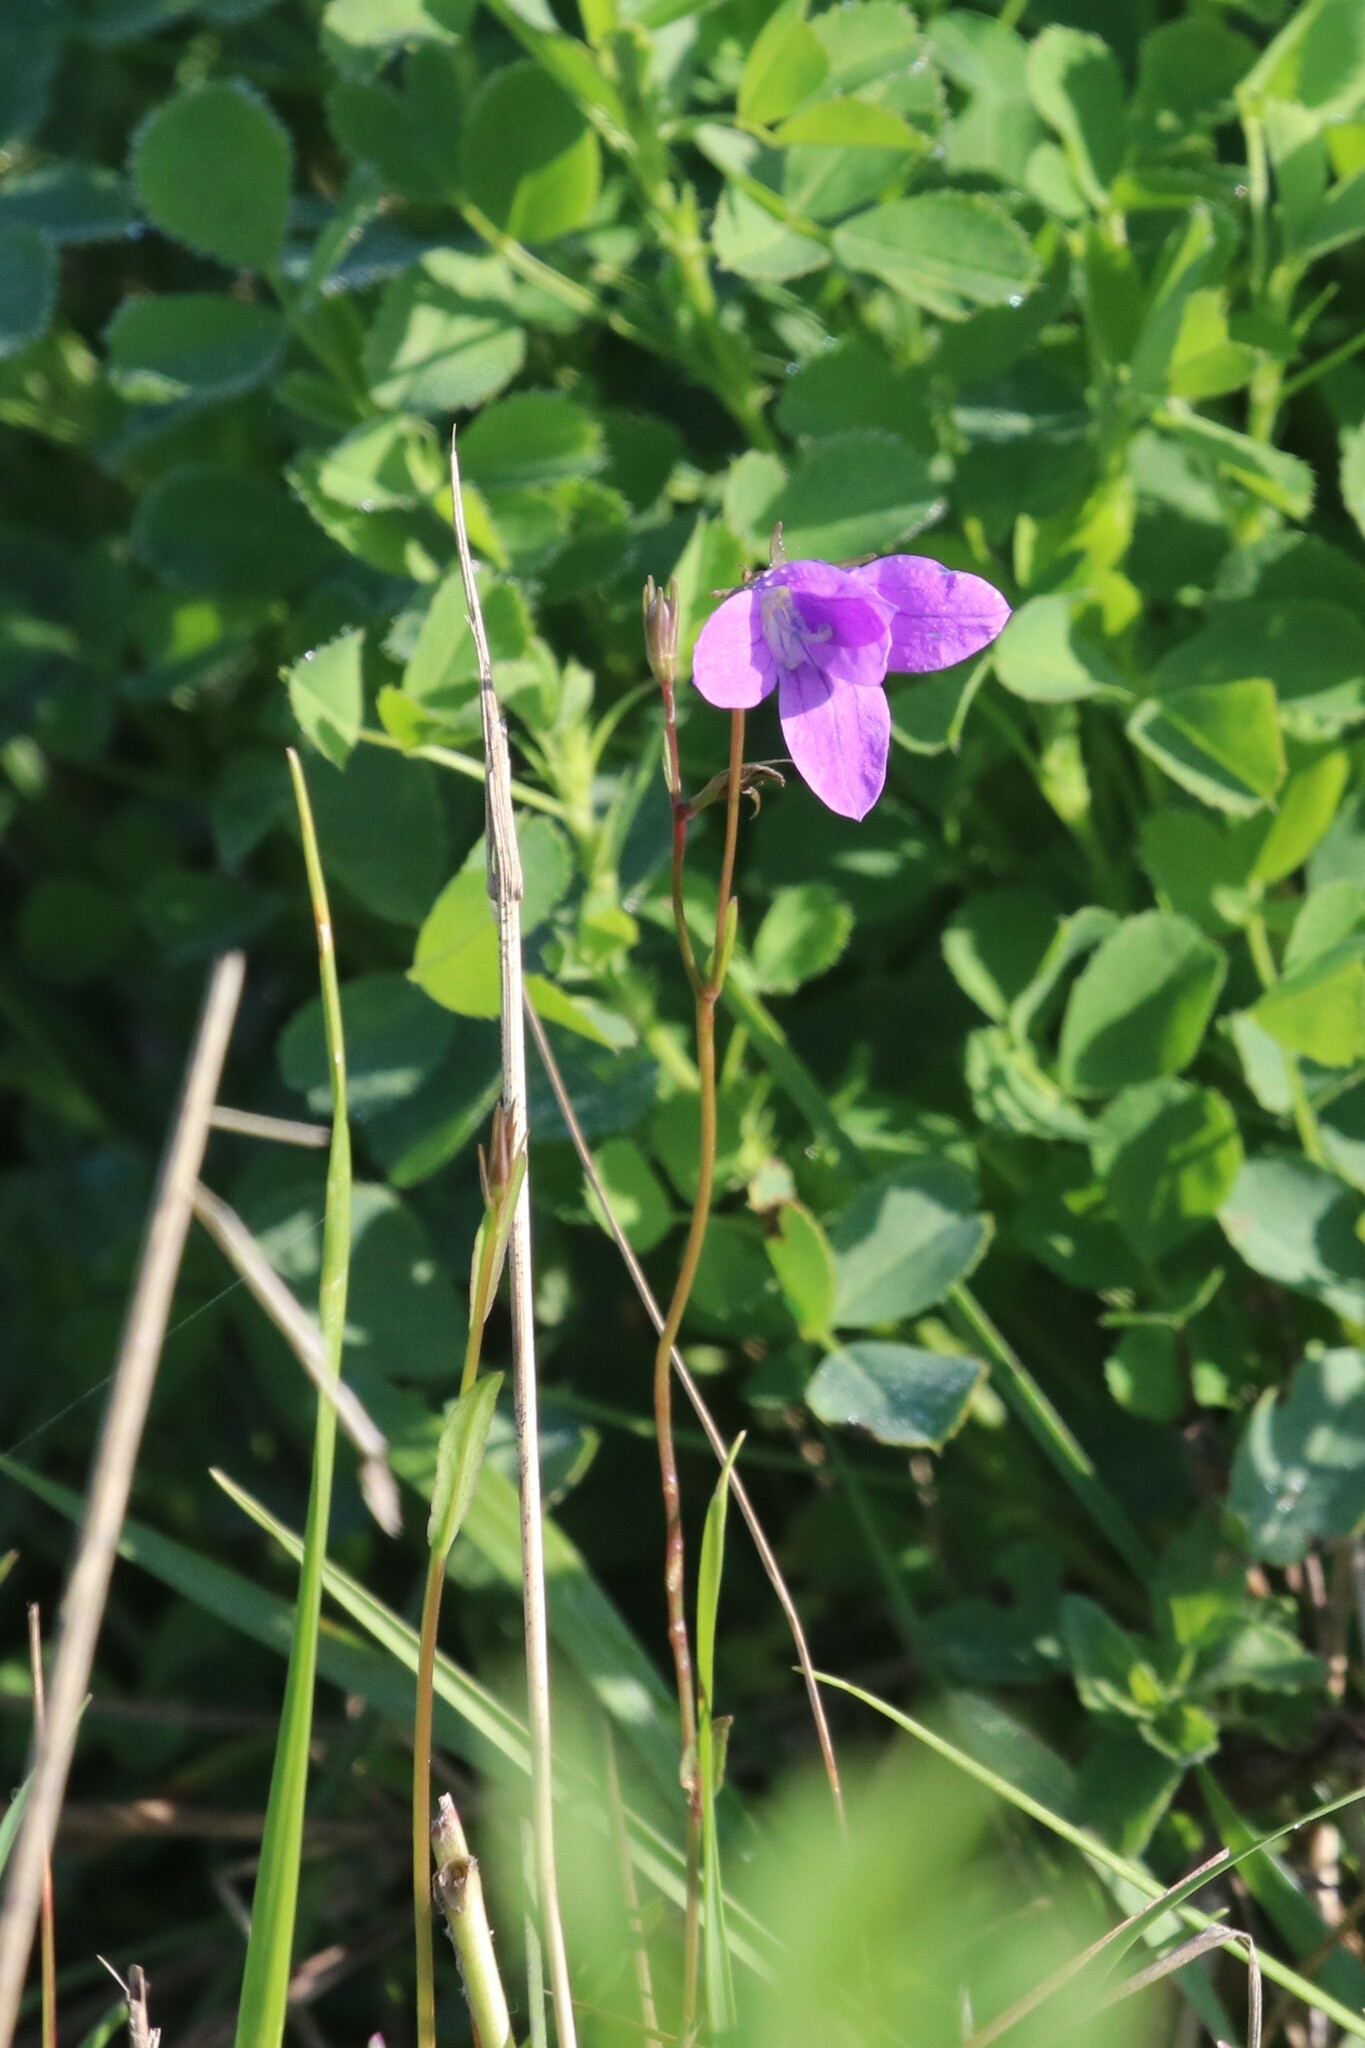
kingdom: Plantae
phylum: Tracheophyta
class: Magnoliopsida
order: Asterales
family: Campanulaceae
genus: Campanula
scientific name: Campanula patula
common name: Spreading bellflower
